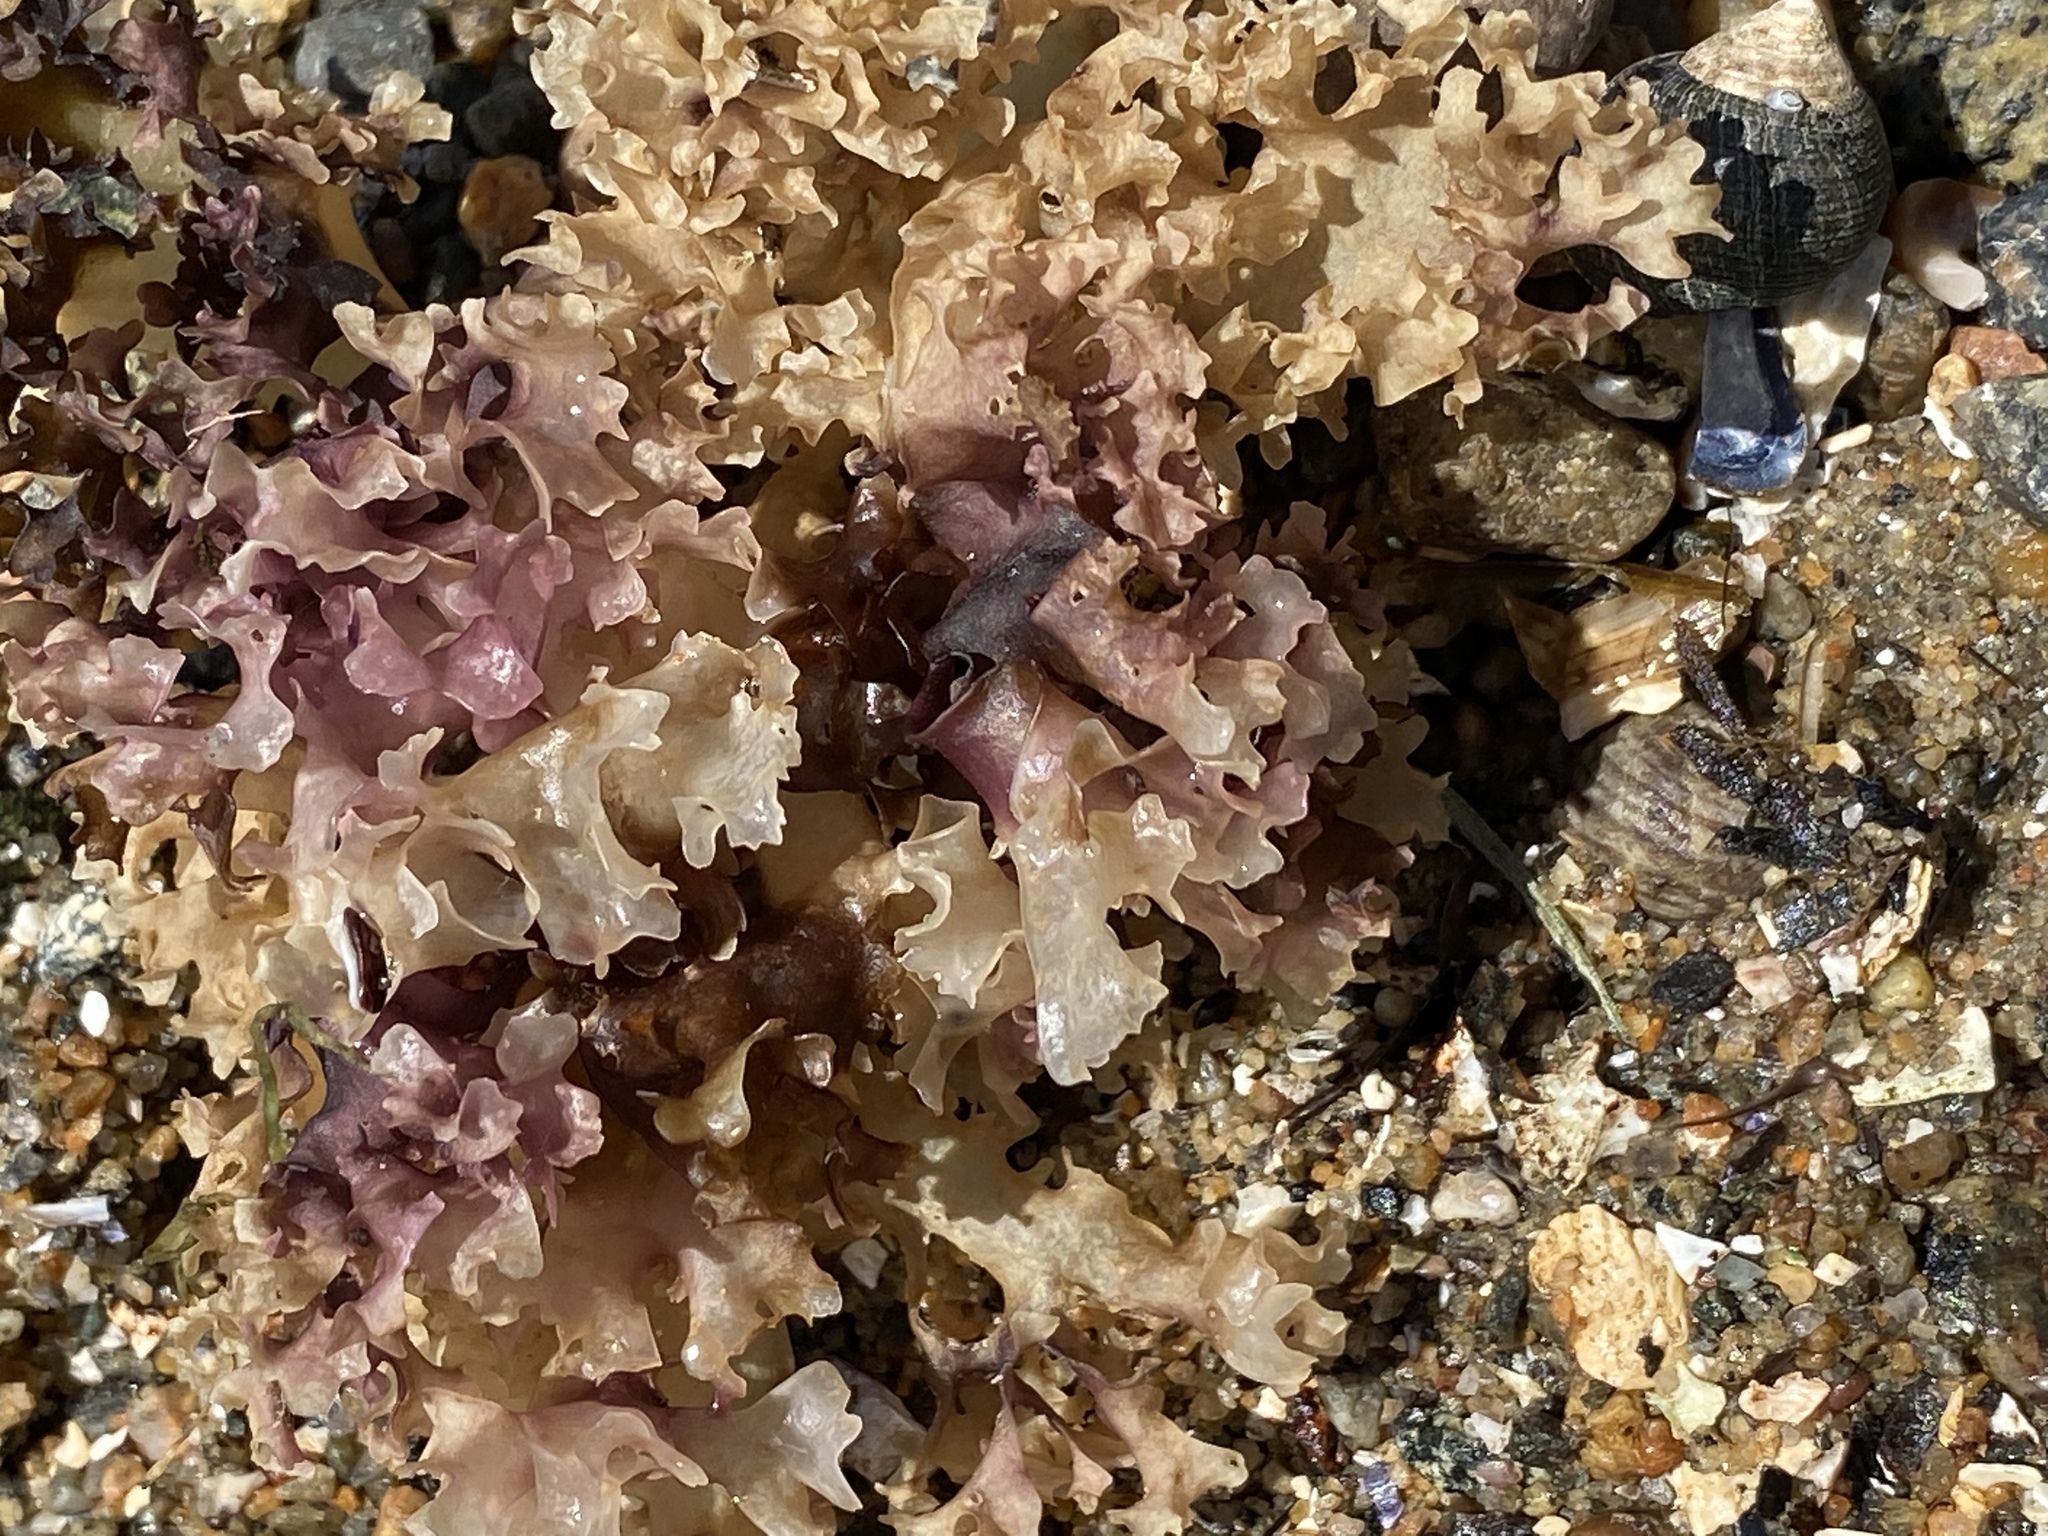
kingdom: Plantae
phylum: Rhodophyta
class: Florideophyceae
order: Gigartinales
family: Gigartinaceae
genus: Chondrus
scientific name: Chondrus crispus
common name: Carrageen
